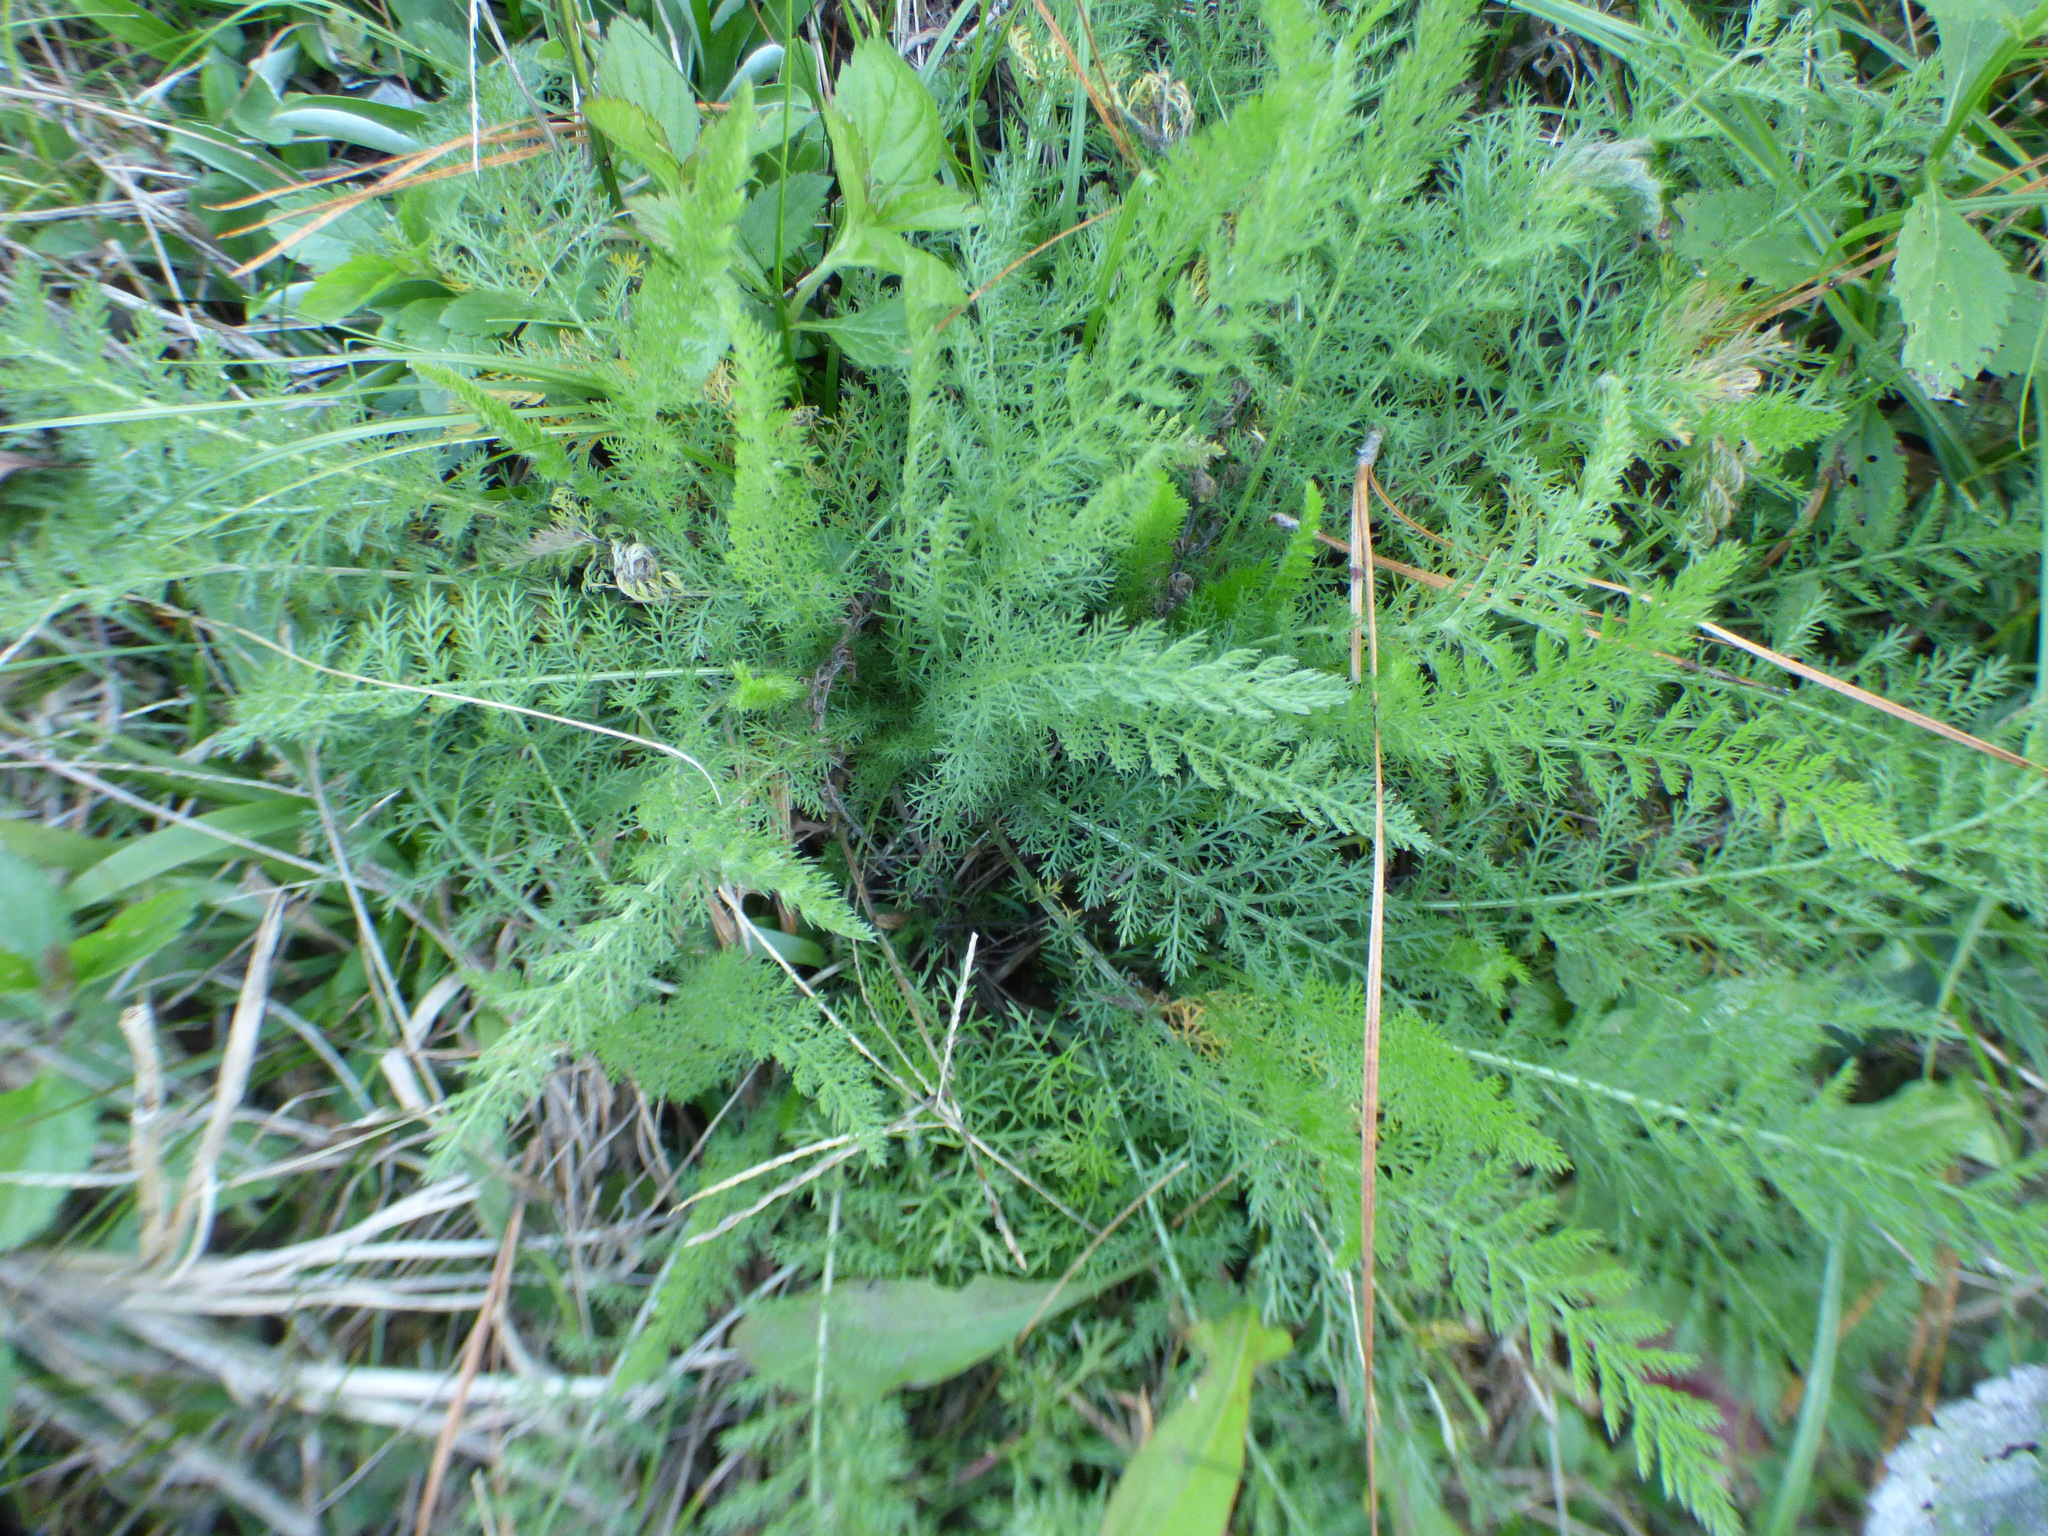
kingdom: Plantae
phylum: Tracheophyta
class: Magnoliopsida
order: Asterales
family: Asteraceae
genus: Achillea
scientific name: Achillea millefolium
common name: Yarrow
